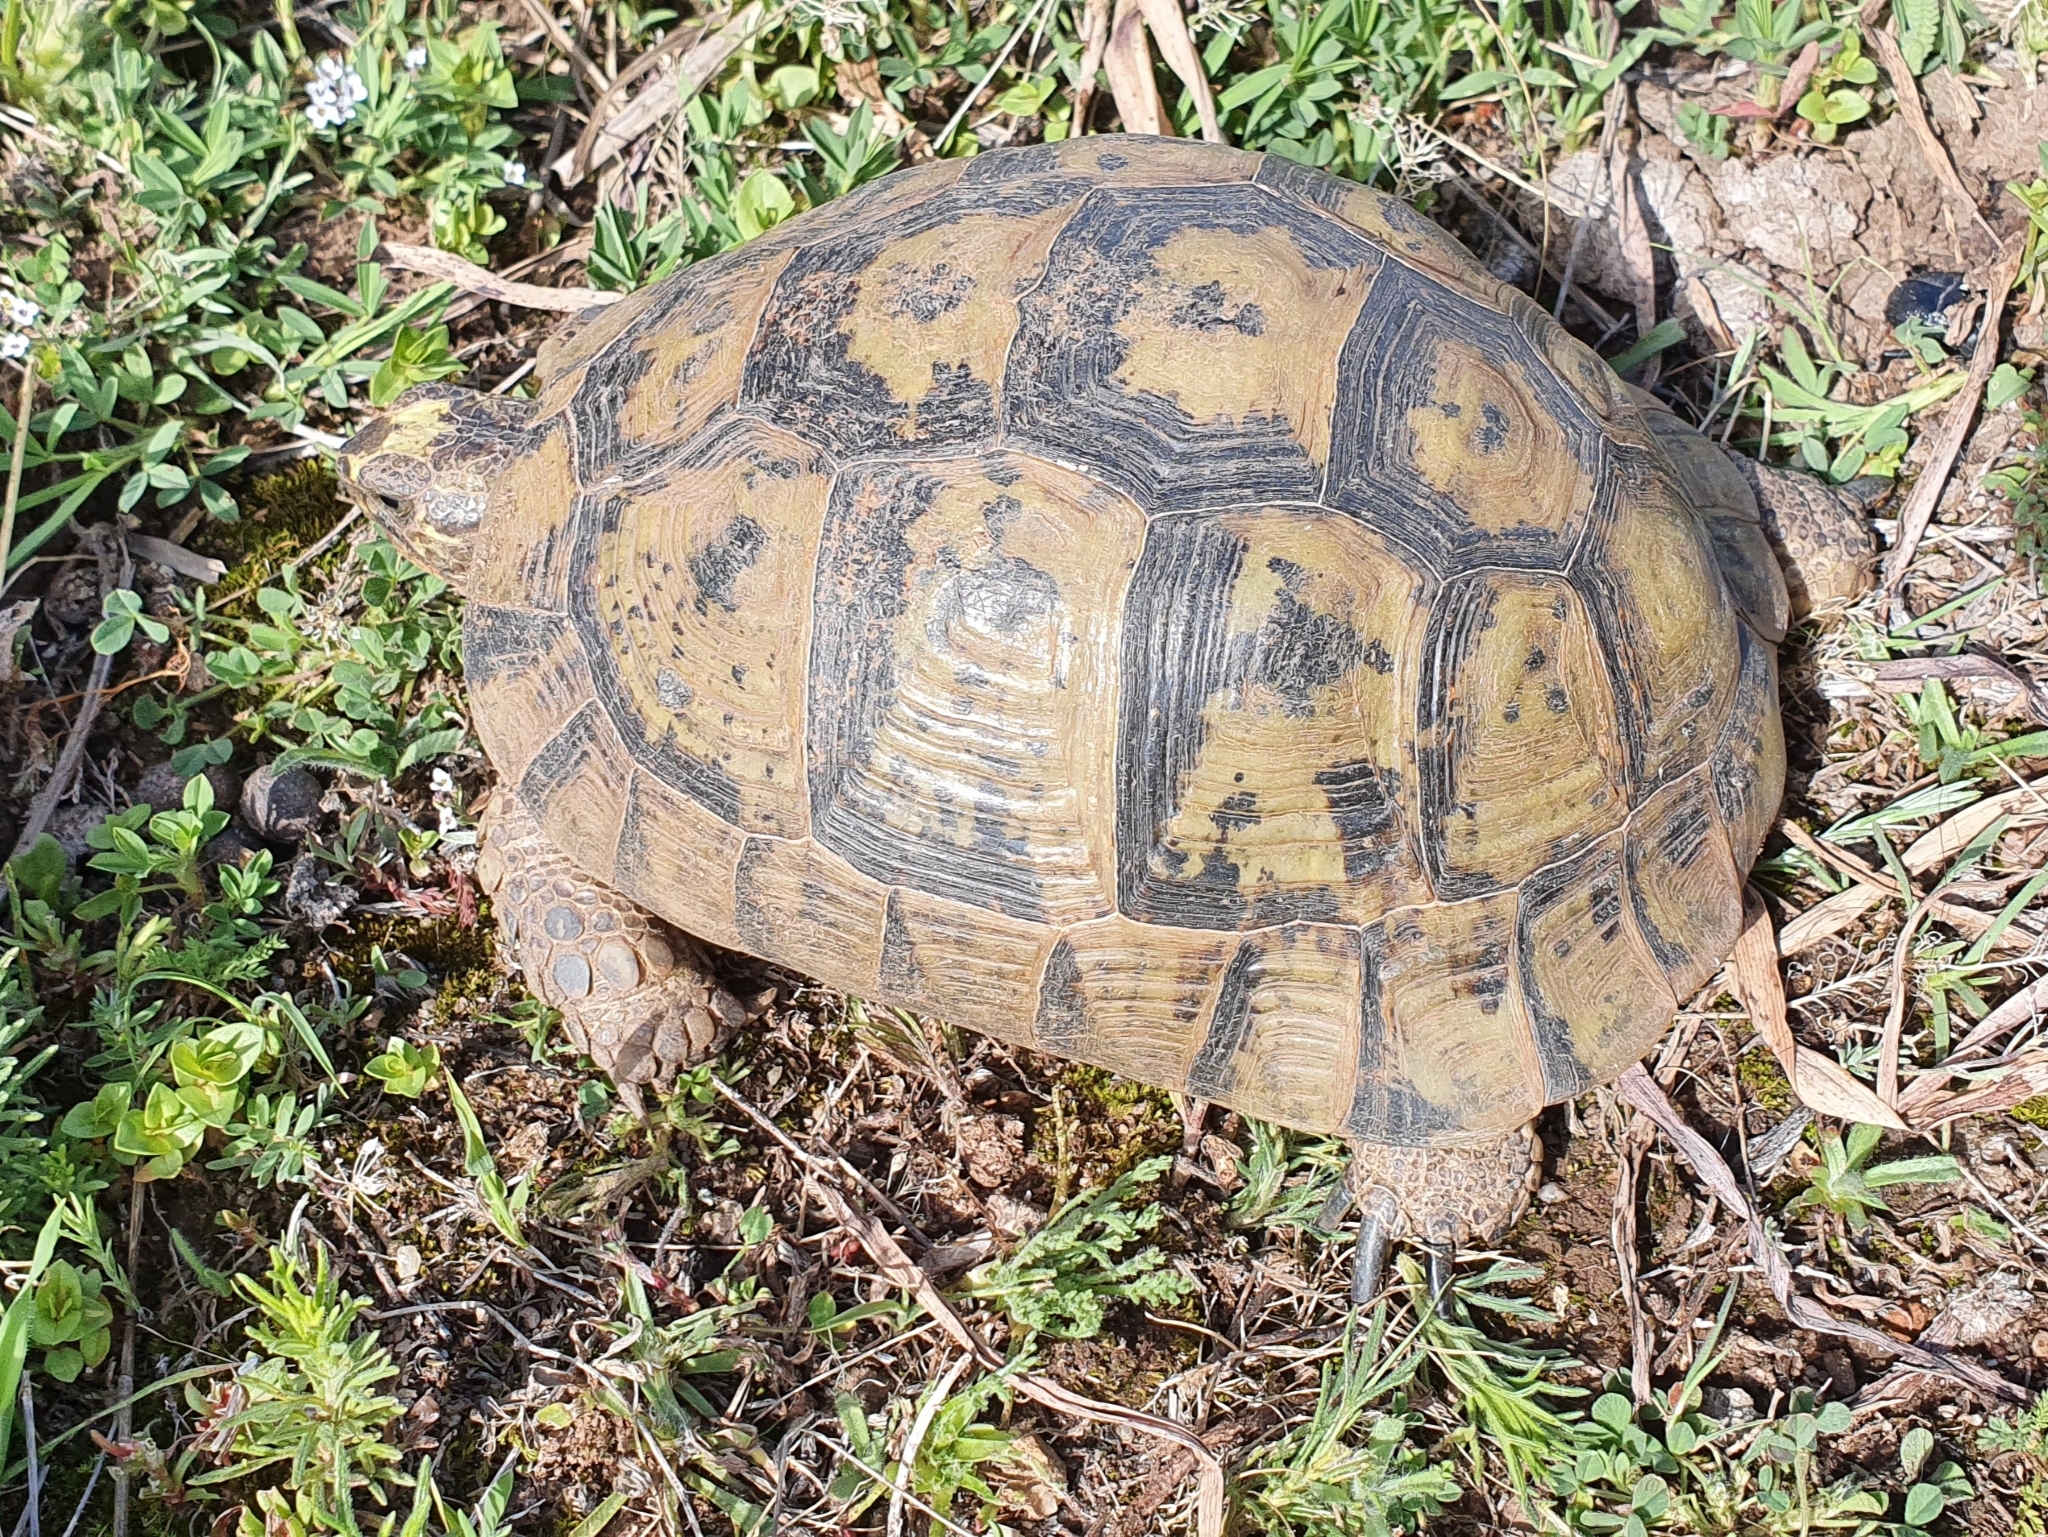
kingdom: Animalia
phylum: Chordata
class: Testudines
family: Testudinidae
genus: Testudo
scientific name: Testudo graeca
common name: Common tortoise
